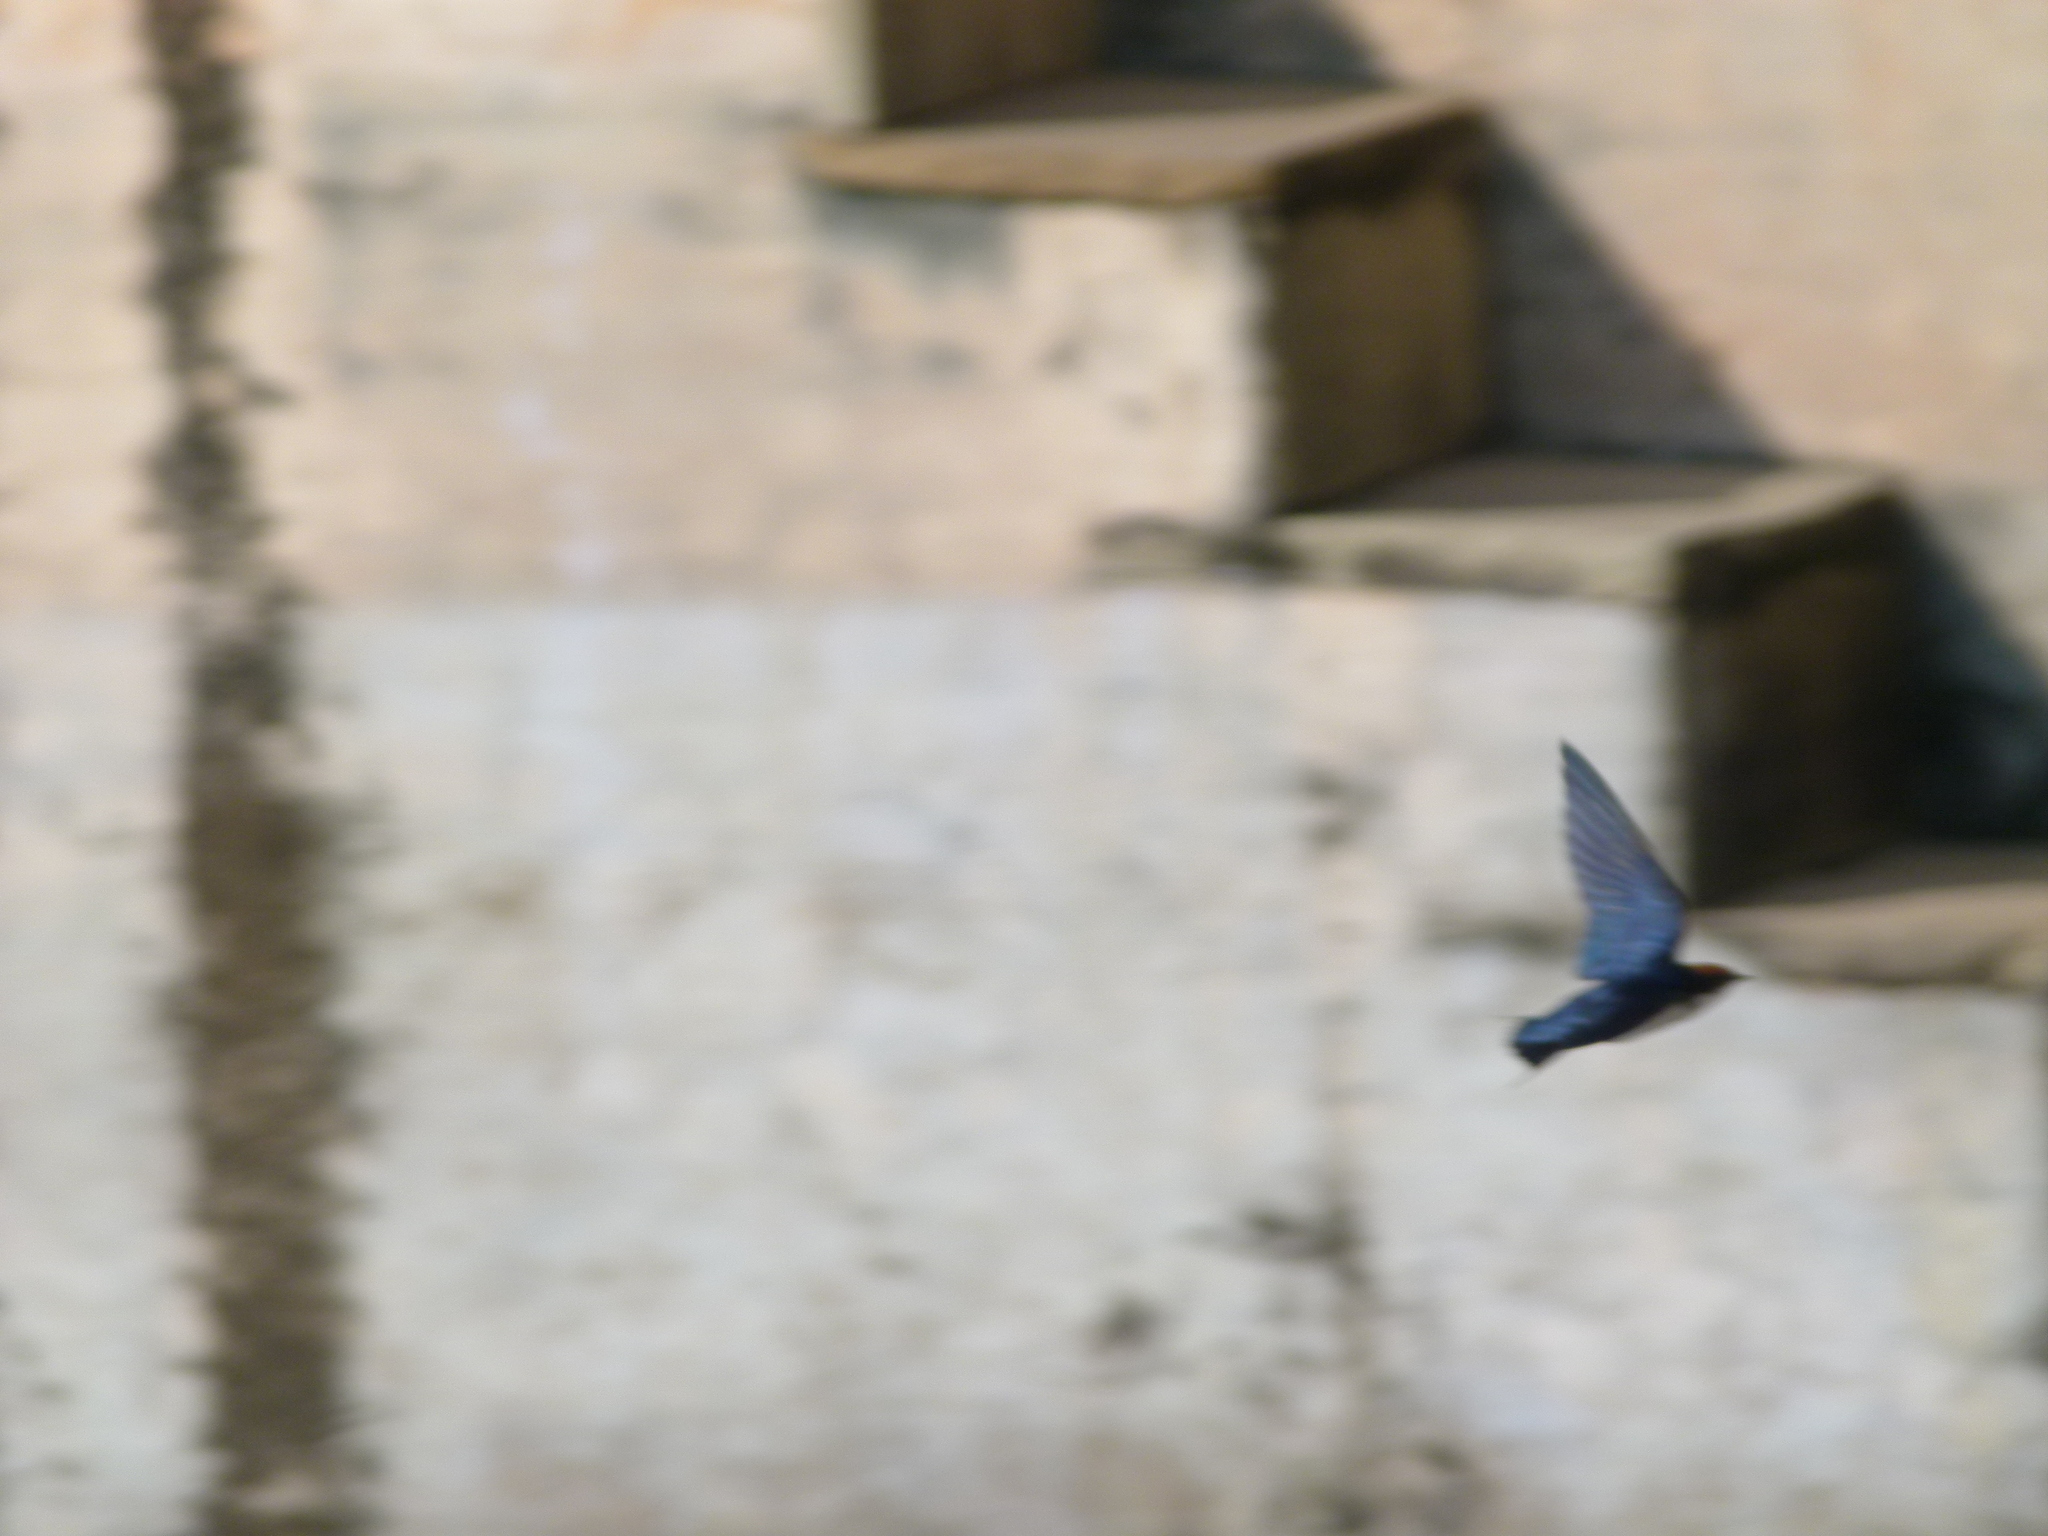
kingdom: Animalia
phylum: Chordata
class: Aves
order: Passeriformes
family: Hirundinidae
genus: Hirundo
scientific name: Hirundo smithii
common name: Wire-tailed swallow
